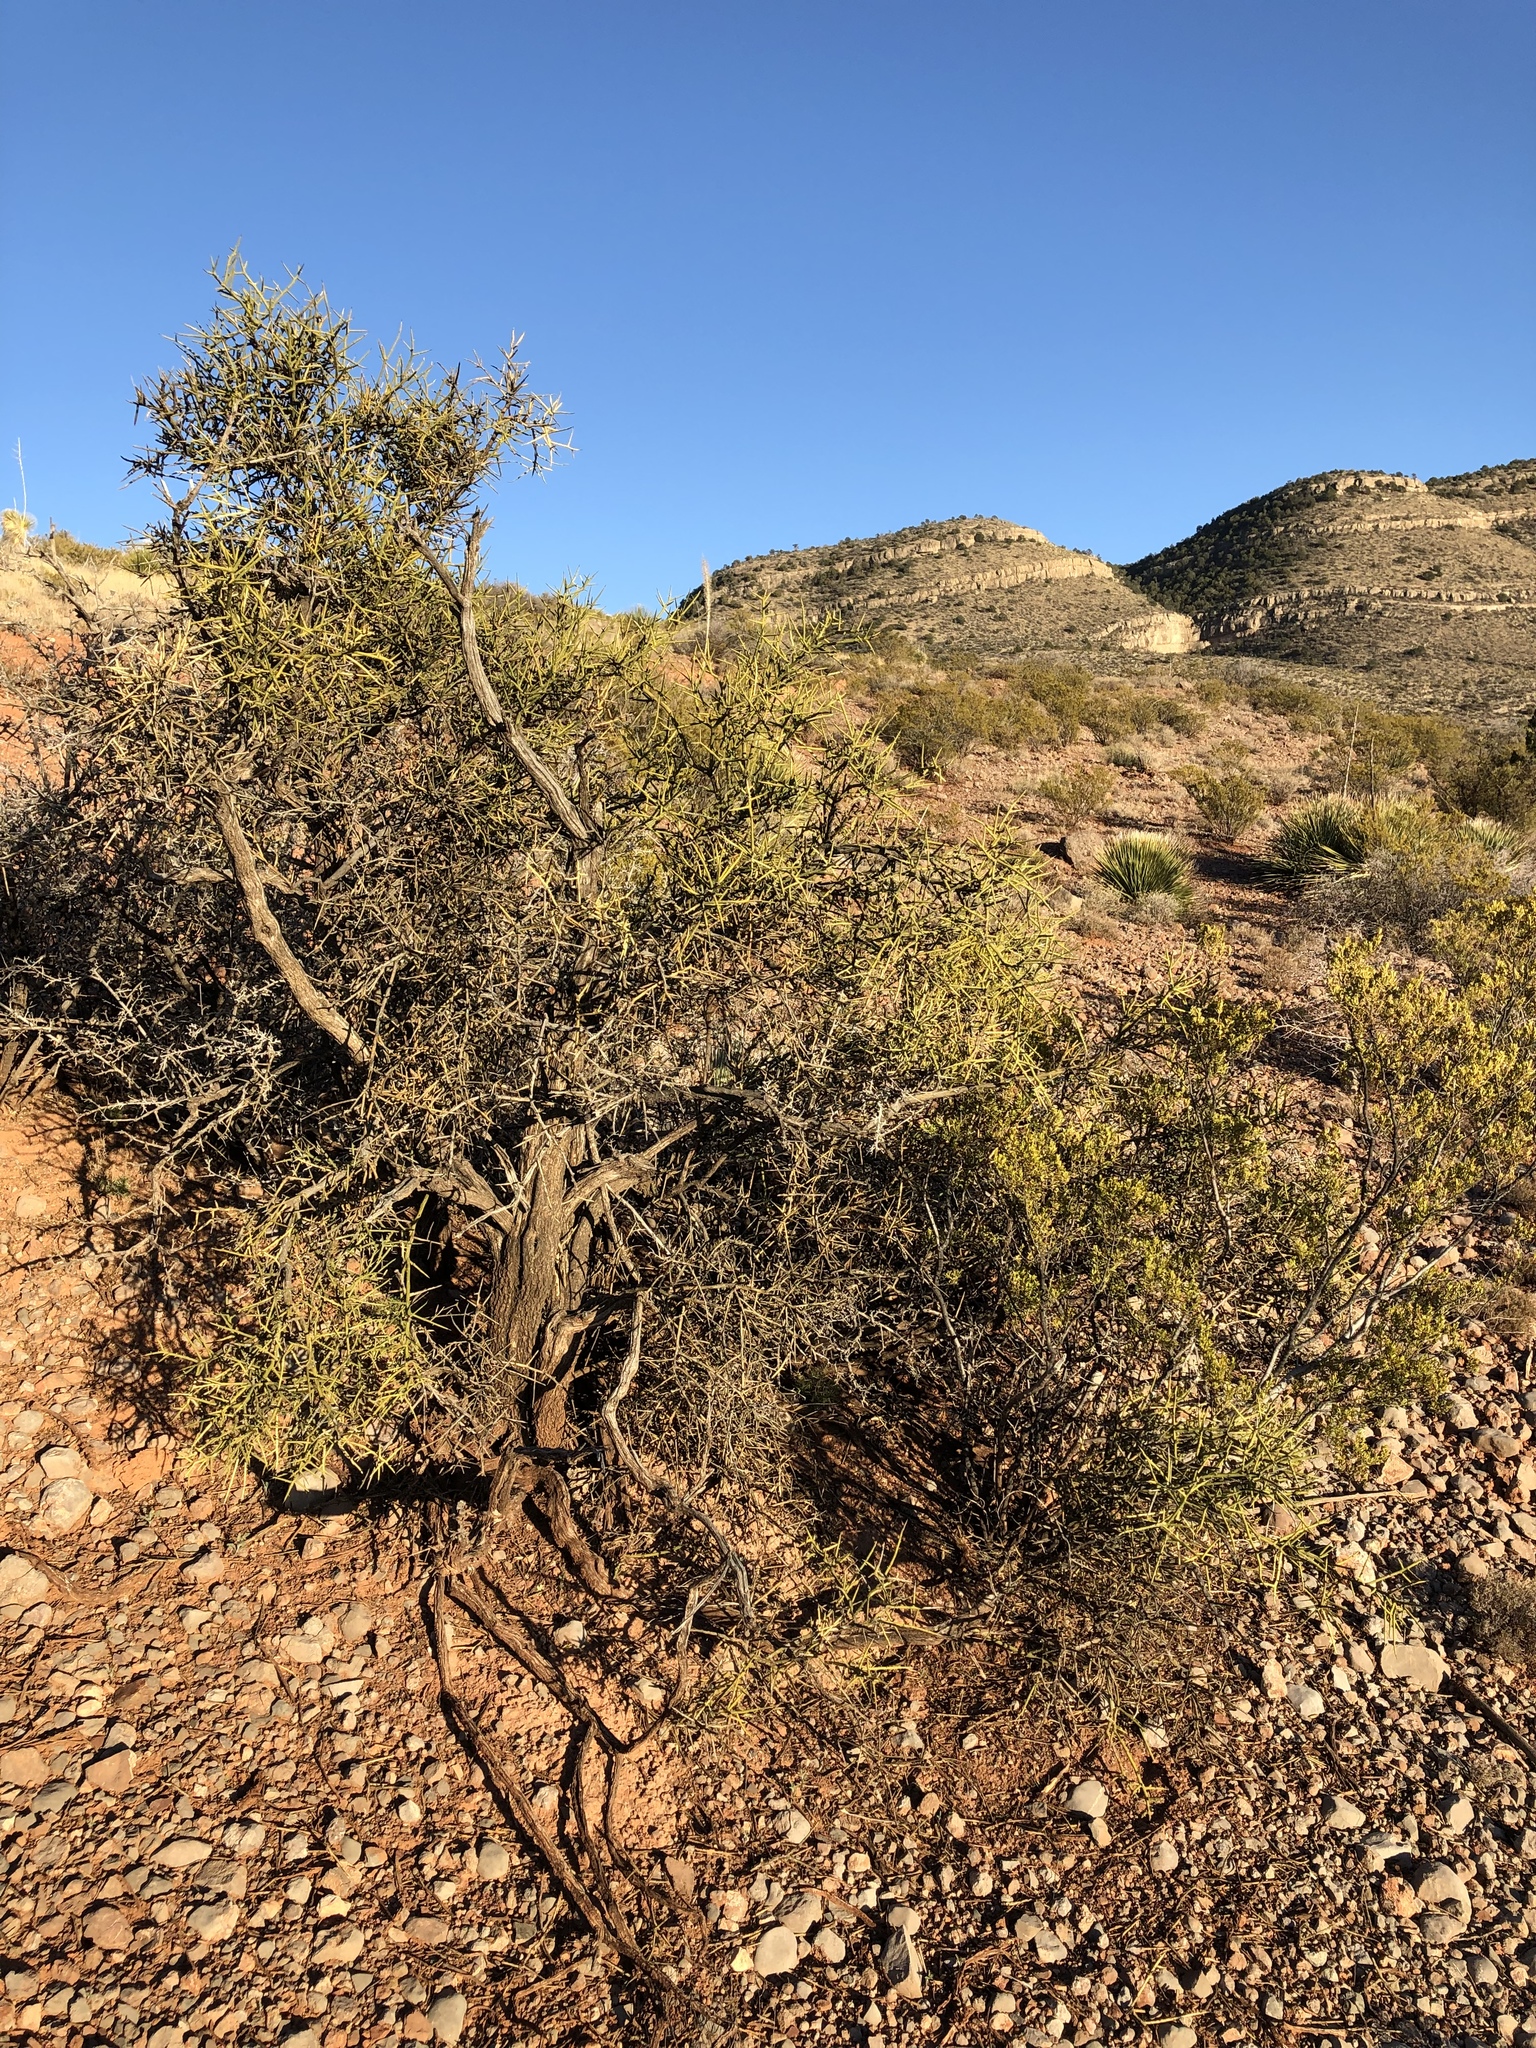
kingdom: Plantae
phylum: Tracheophyta
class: Magnoliopsida
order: Brassicales
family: Koeberliniaceae
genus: Koeberlinia
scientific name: Koeberlinia spinosa
